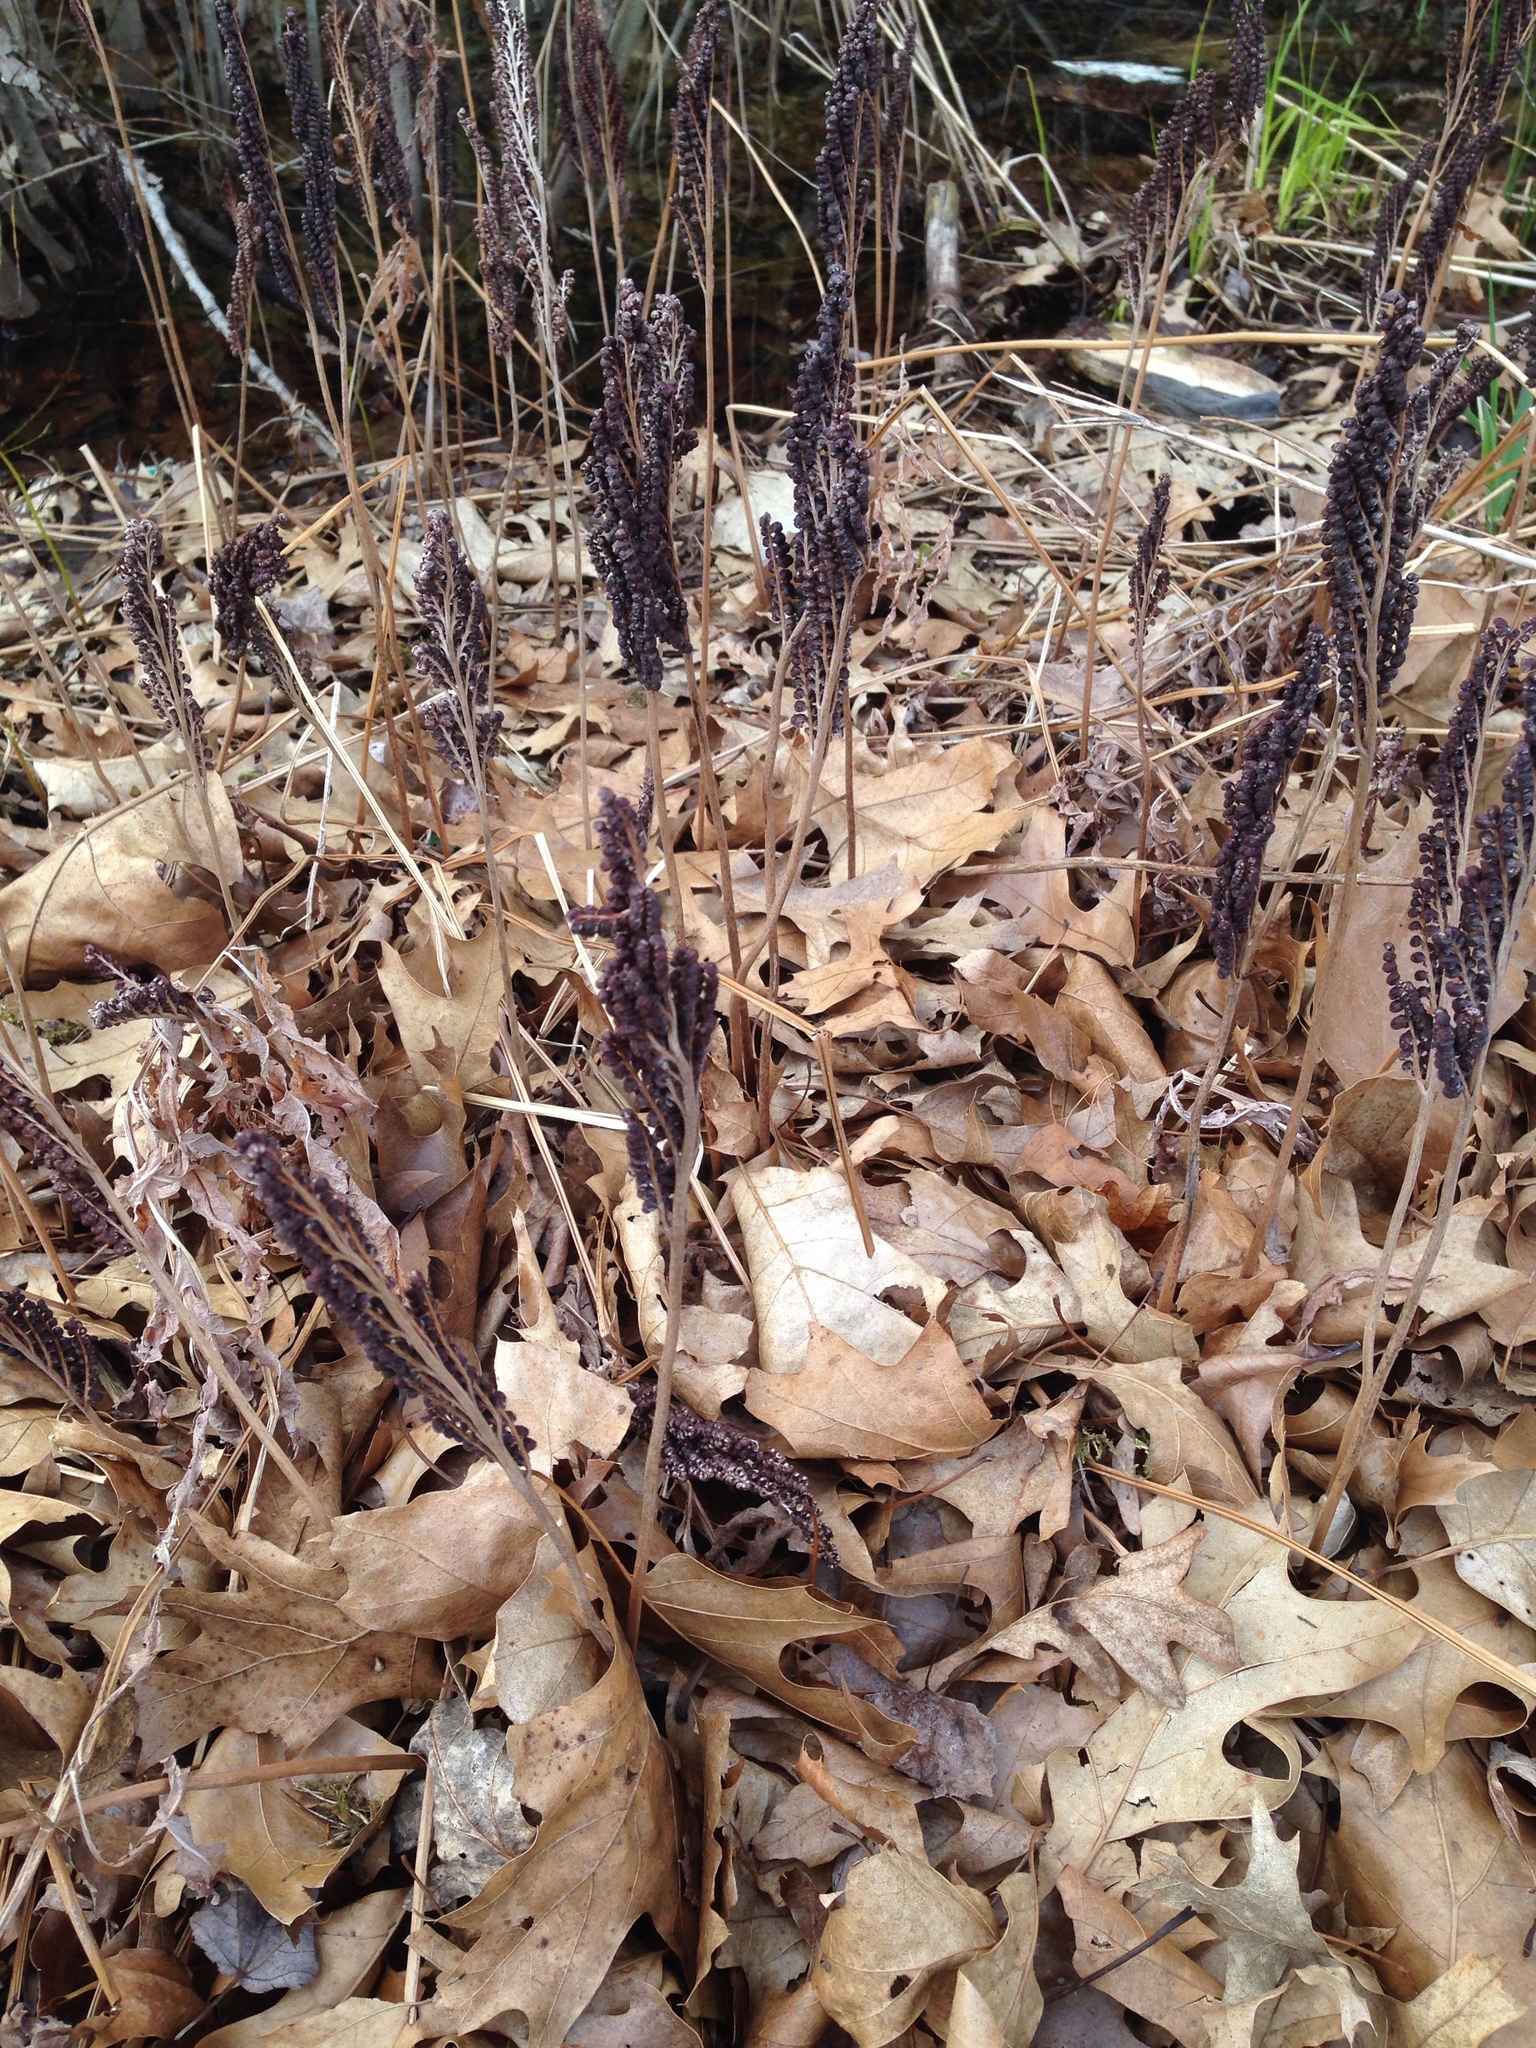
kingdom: Plantae
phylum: Tracheophyta
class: Polypodiopsida
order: Polypodiales
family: Onocleaceae
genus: Onoclea
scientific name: Onoclea sensibilis
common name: Sensitive fern
